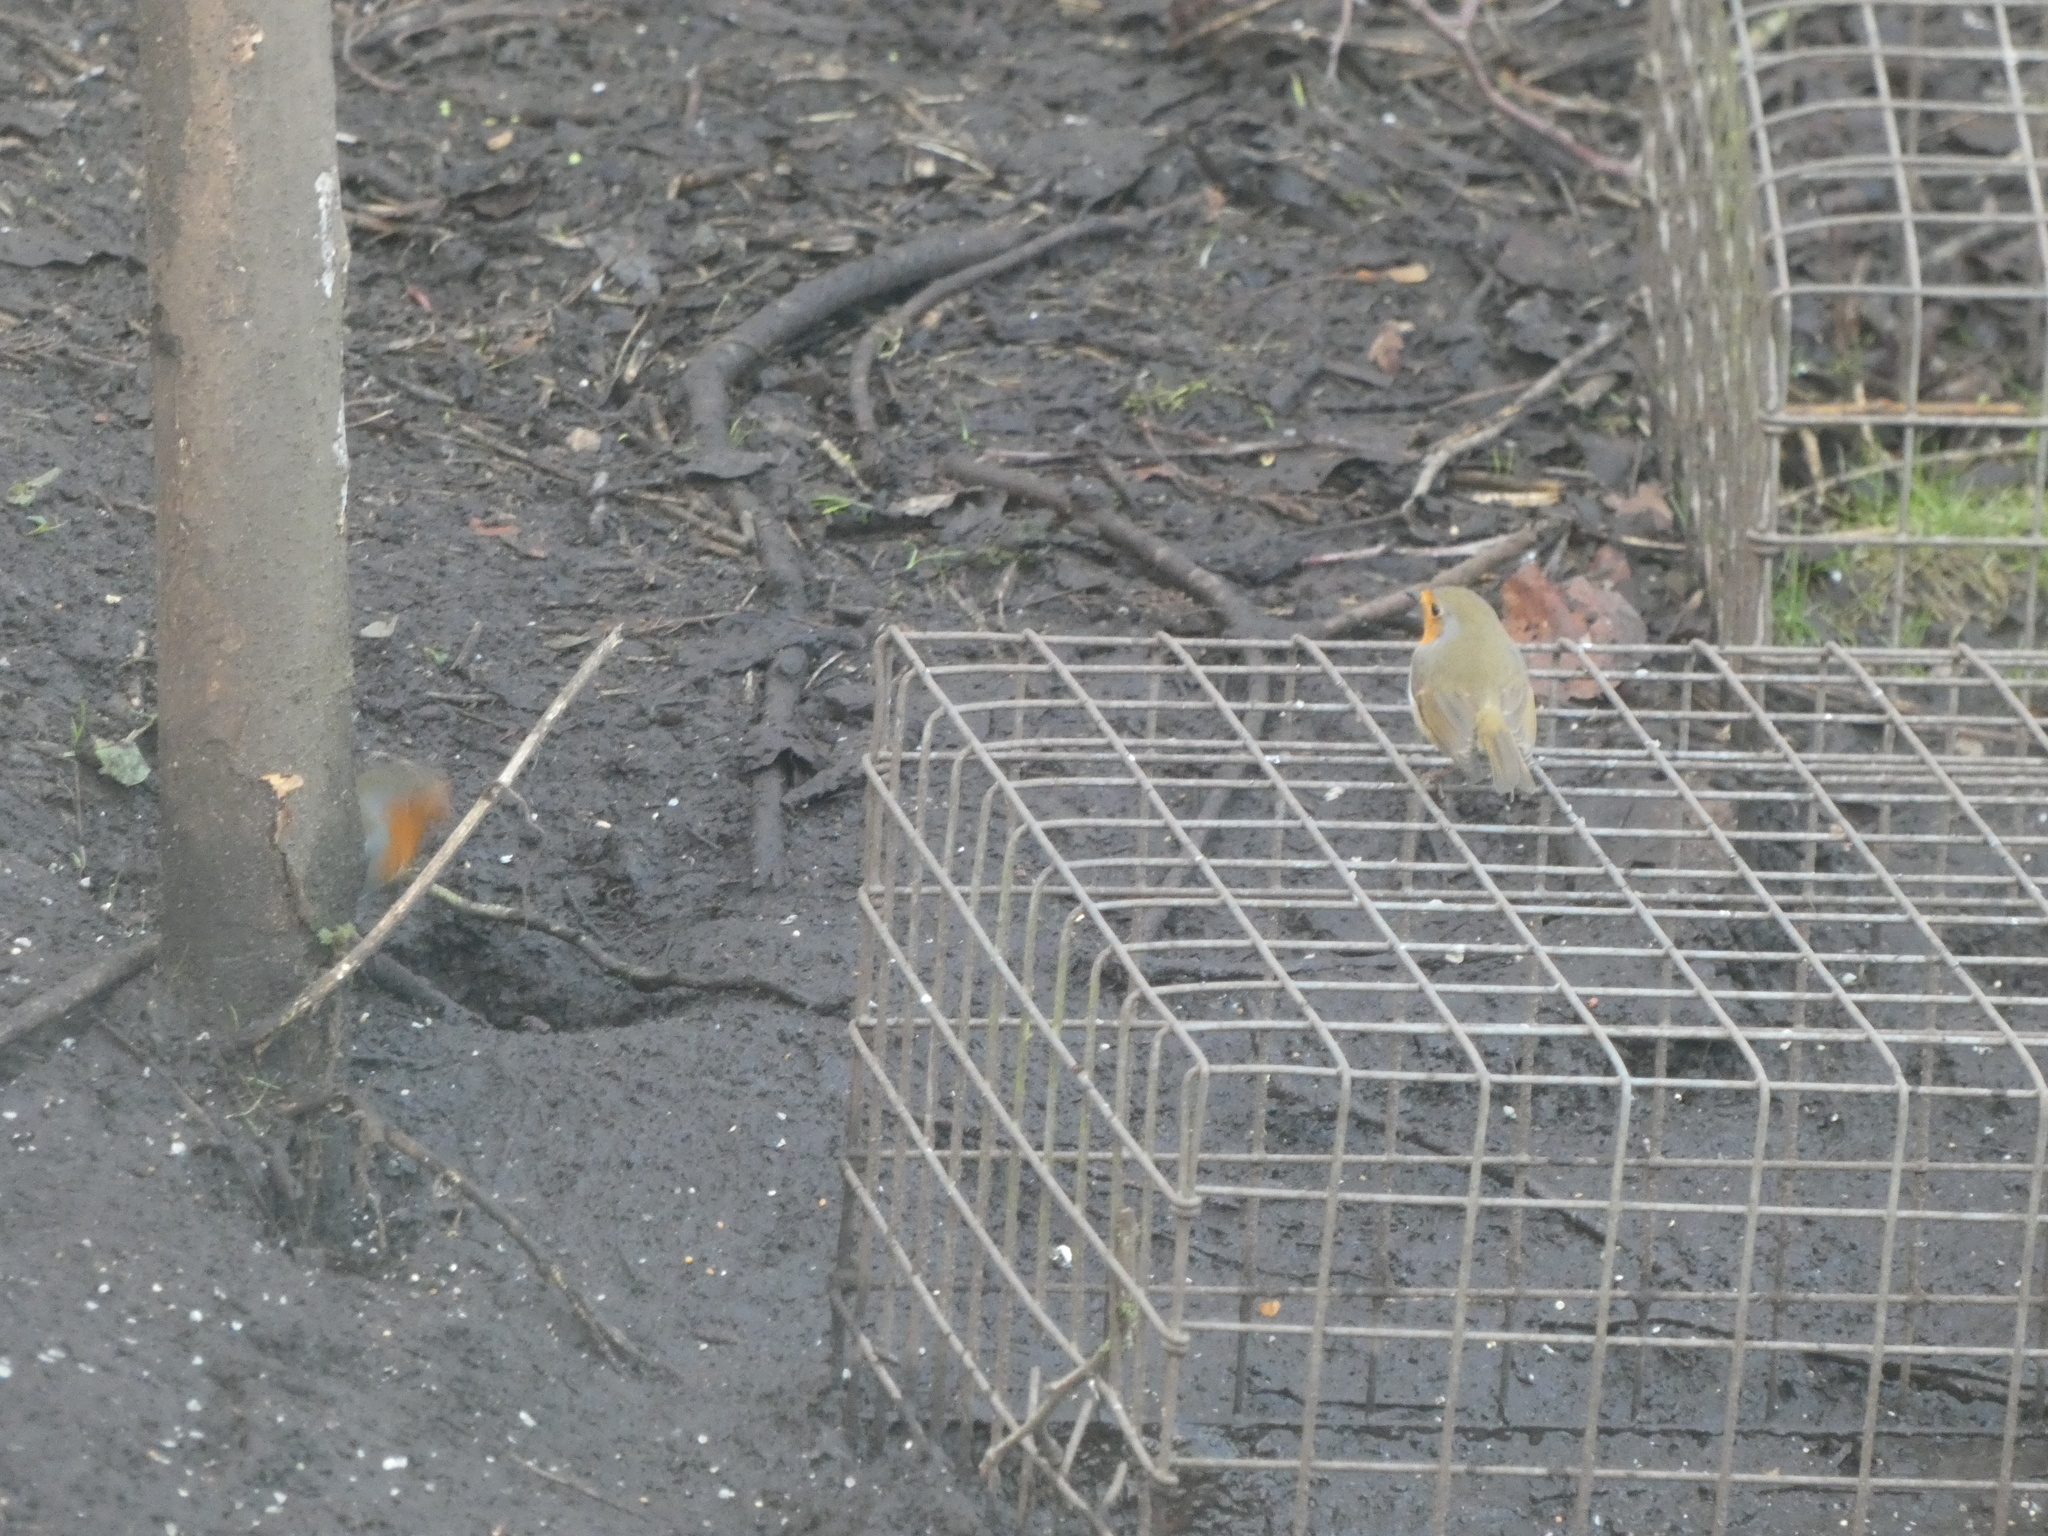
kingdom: Animalia
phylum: Chordata
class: Aves
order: Passeriformes
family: Muscicapidae
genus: Erithacus
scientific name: Erithacus rubecula
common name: European robin
